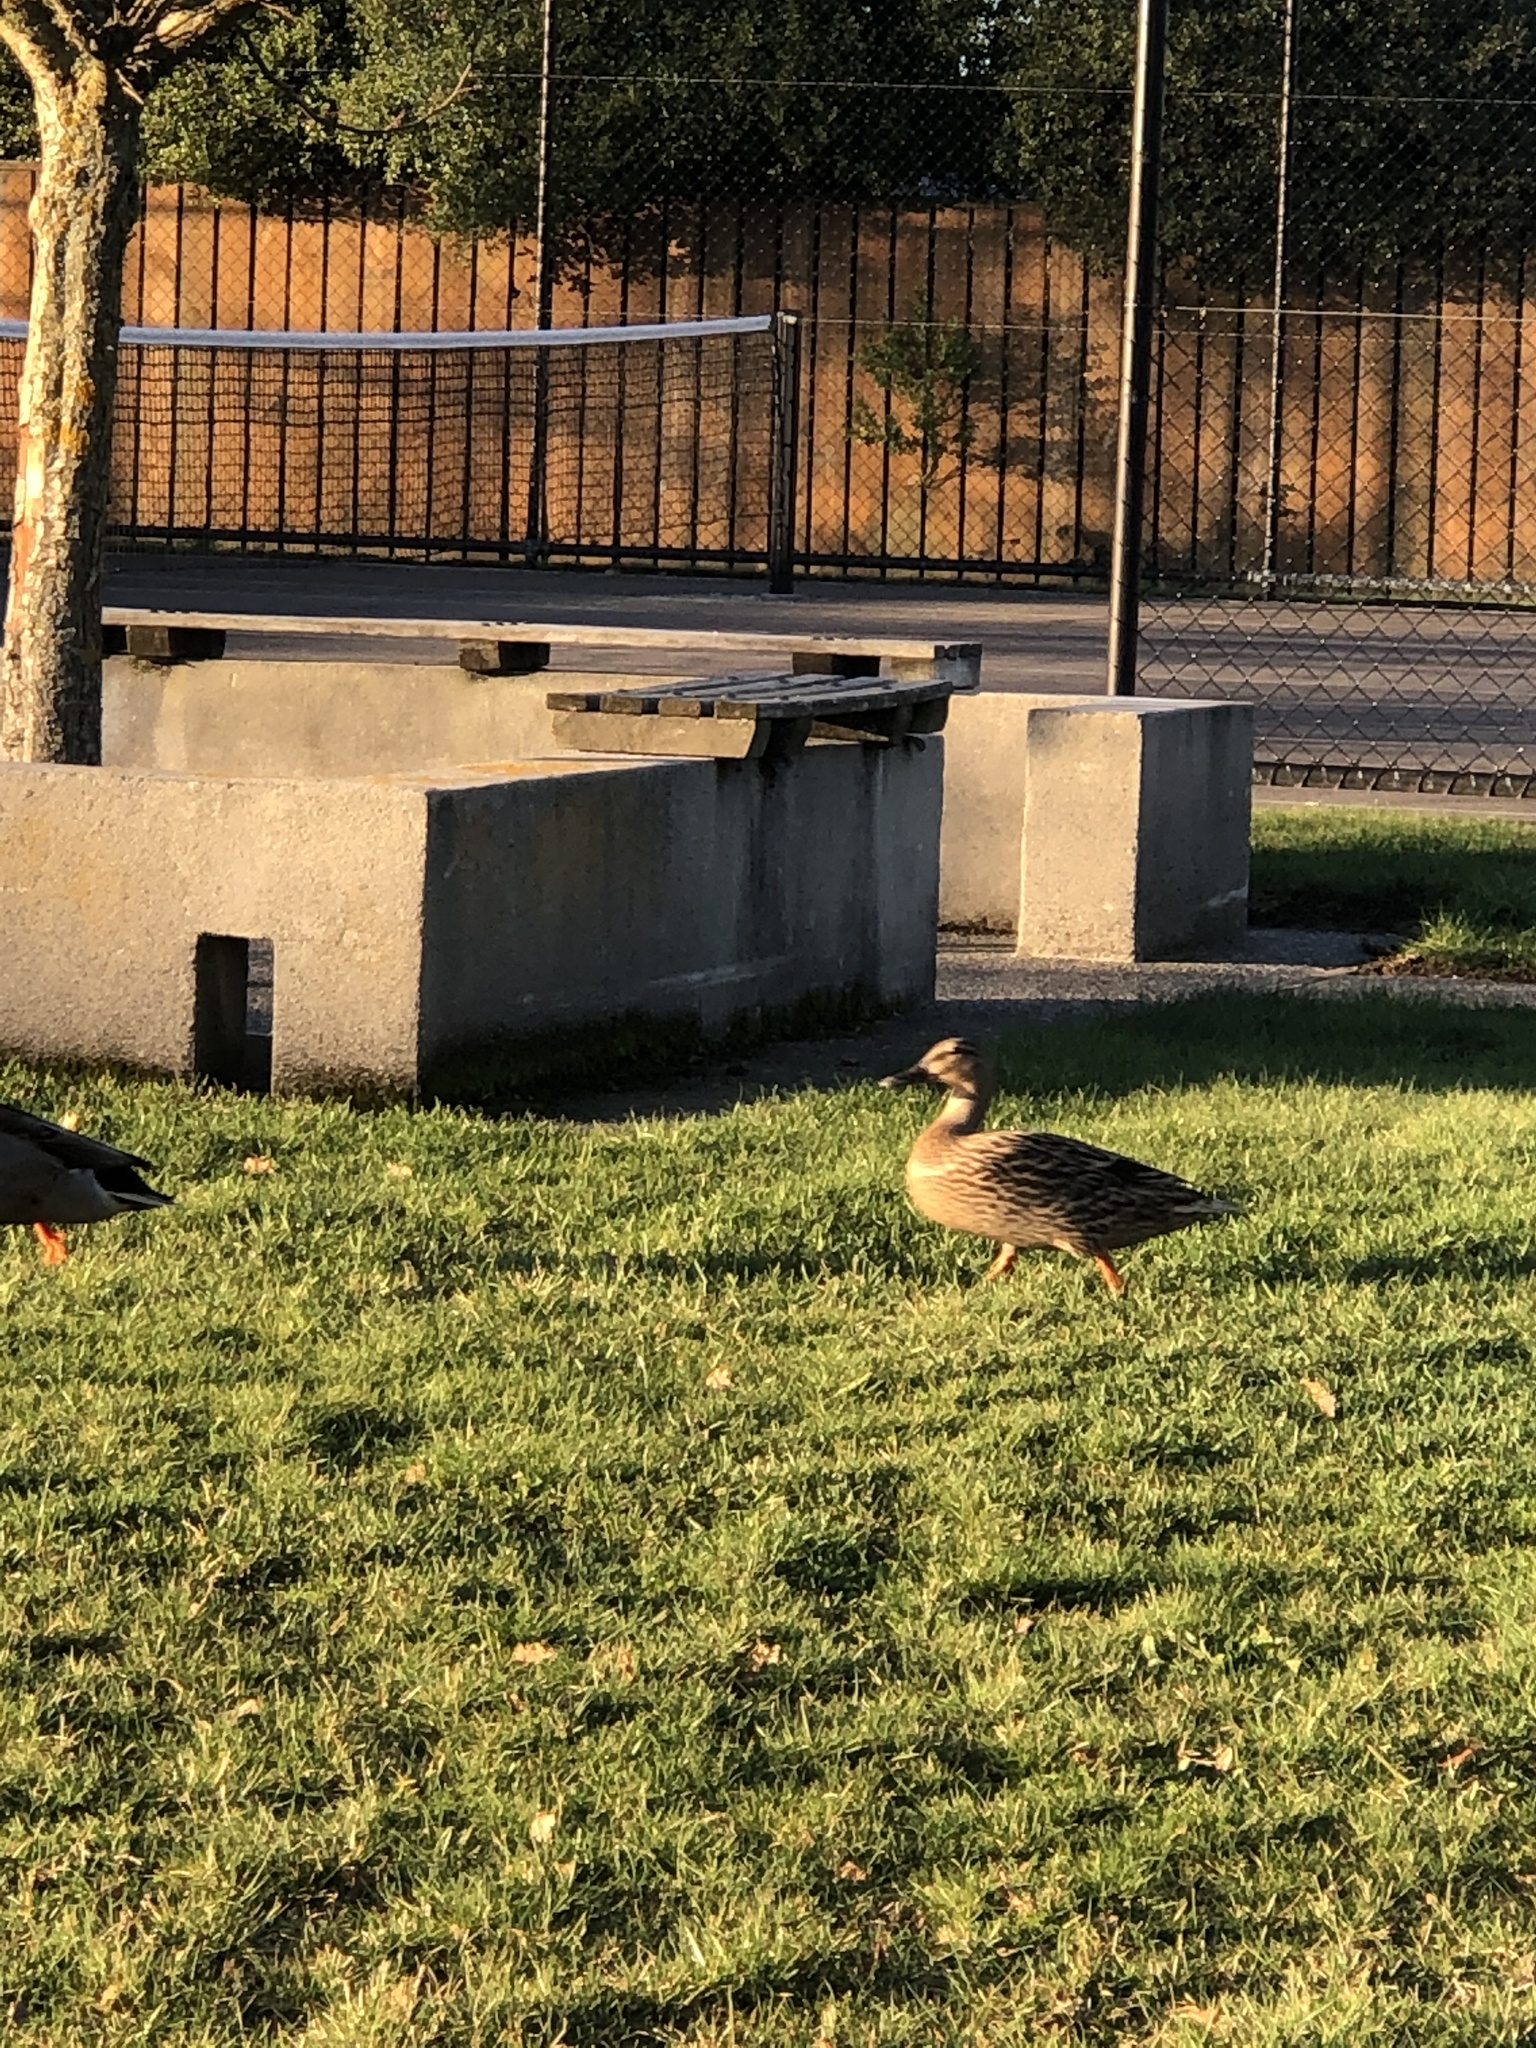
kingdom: Animalia
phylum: Chordata
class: Aves
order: Anseriformes
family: Anatidae
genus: Anas
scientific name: Anas platyrhynchos
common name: Mallard
